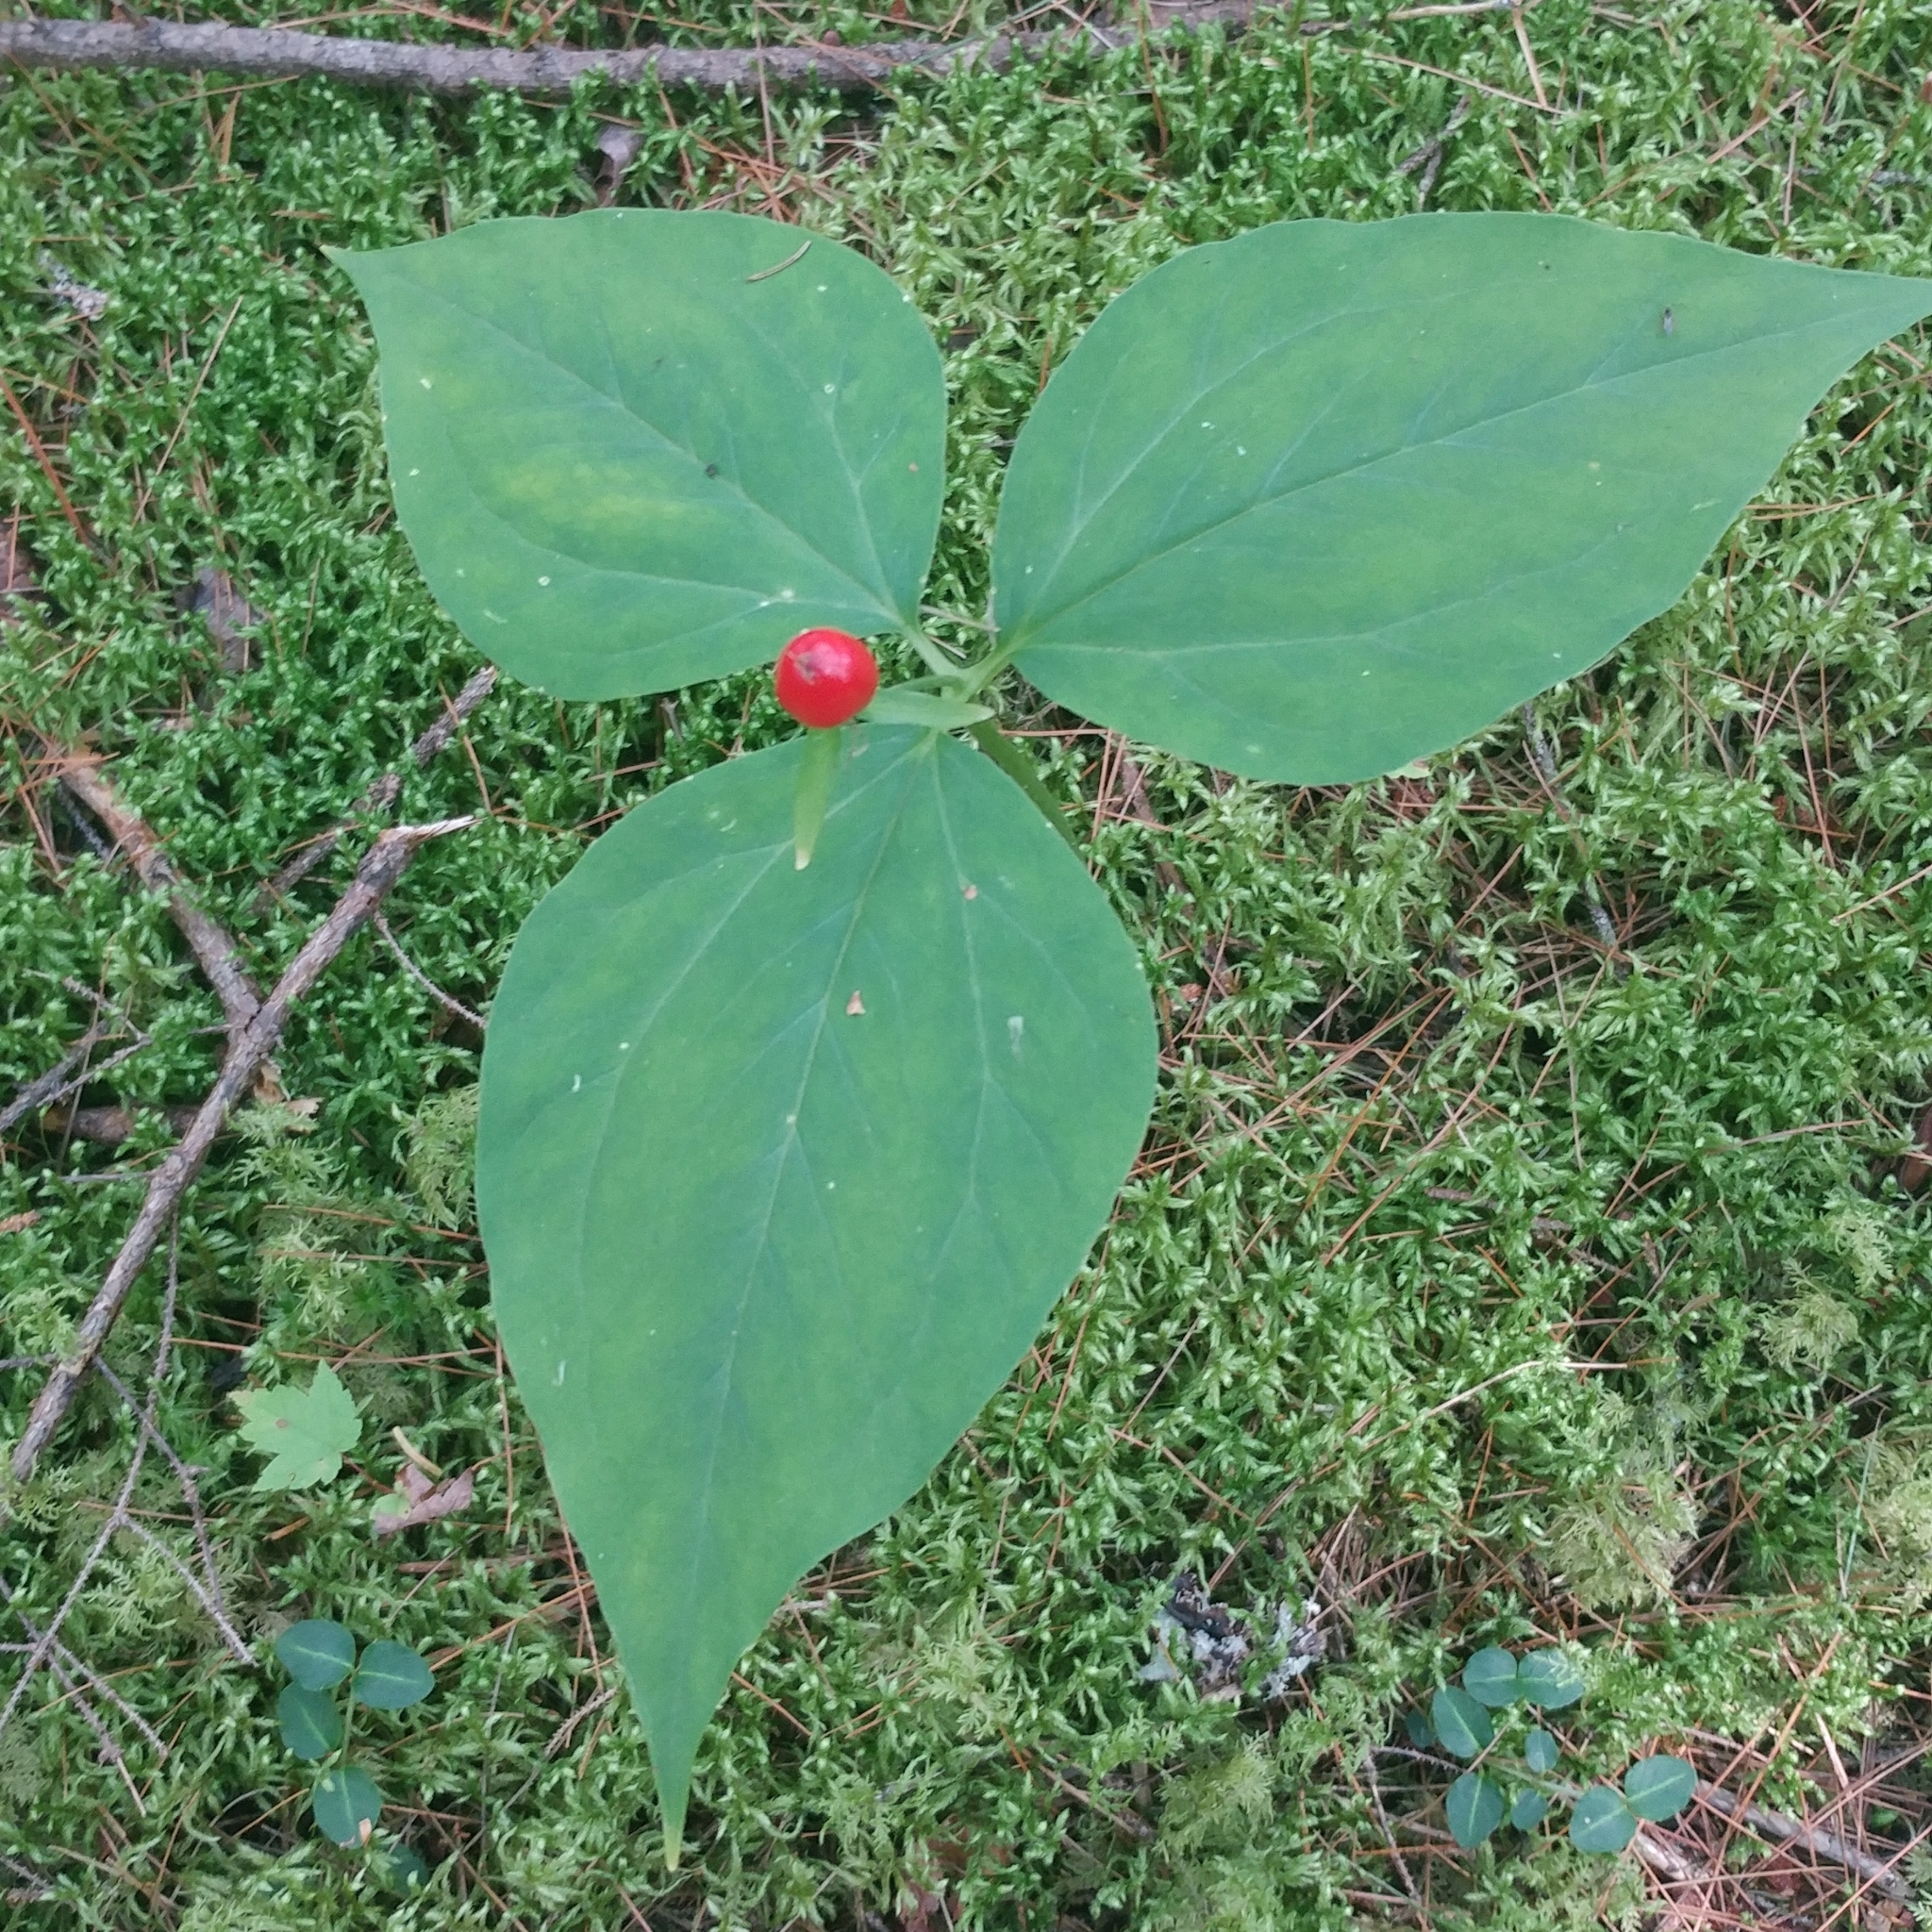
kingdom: Plantae
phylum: Tracheophyta
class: Liliopsida
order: Liliales
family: Melanthiaceae
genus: Trillium
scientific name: Trillium undulatum
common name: Paint trillium
